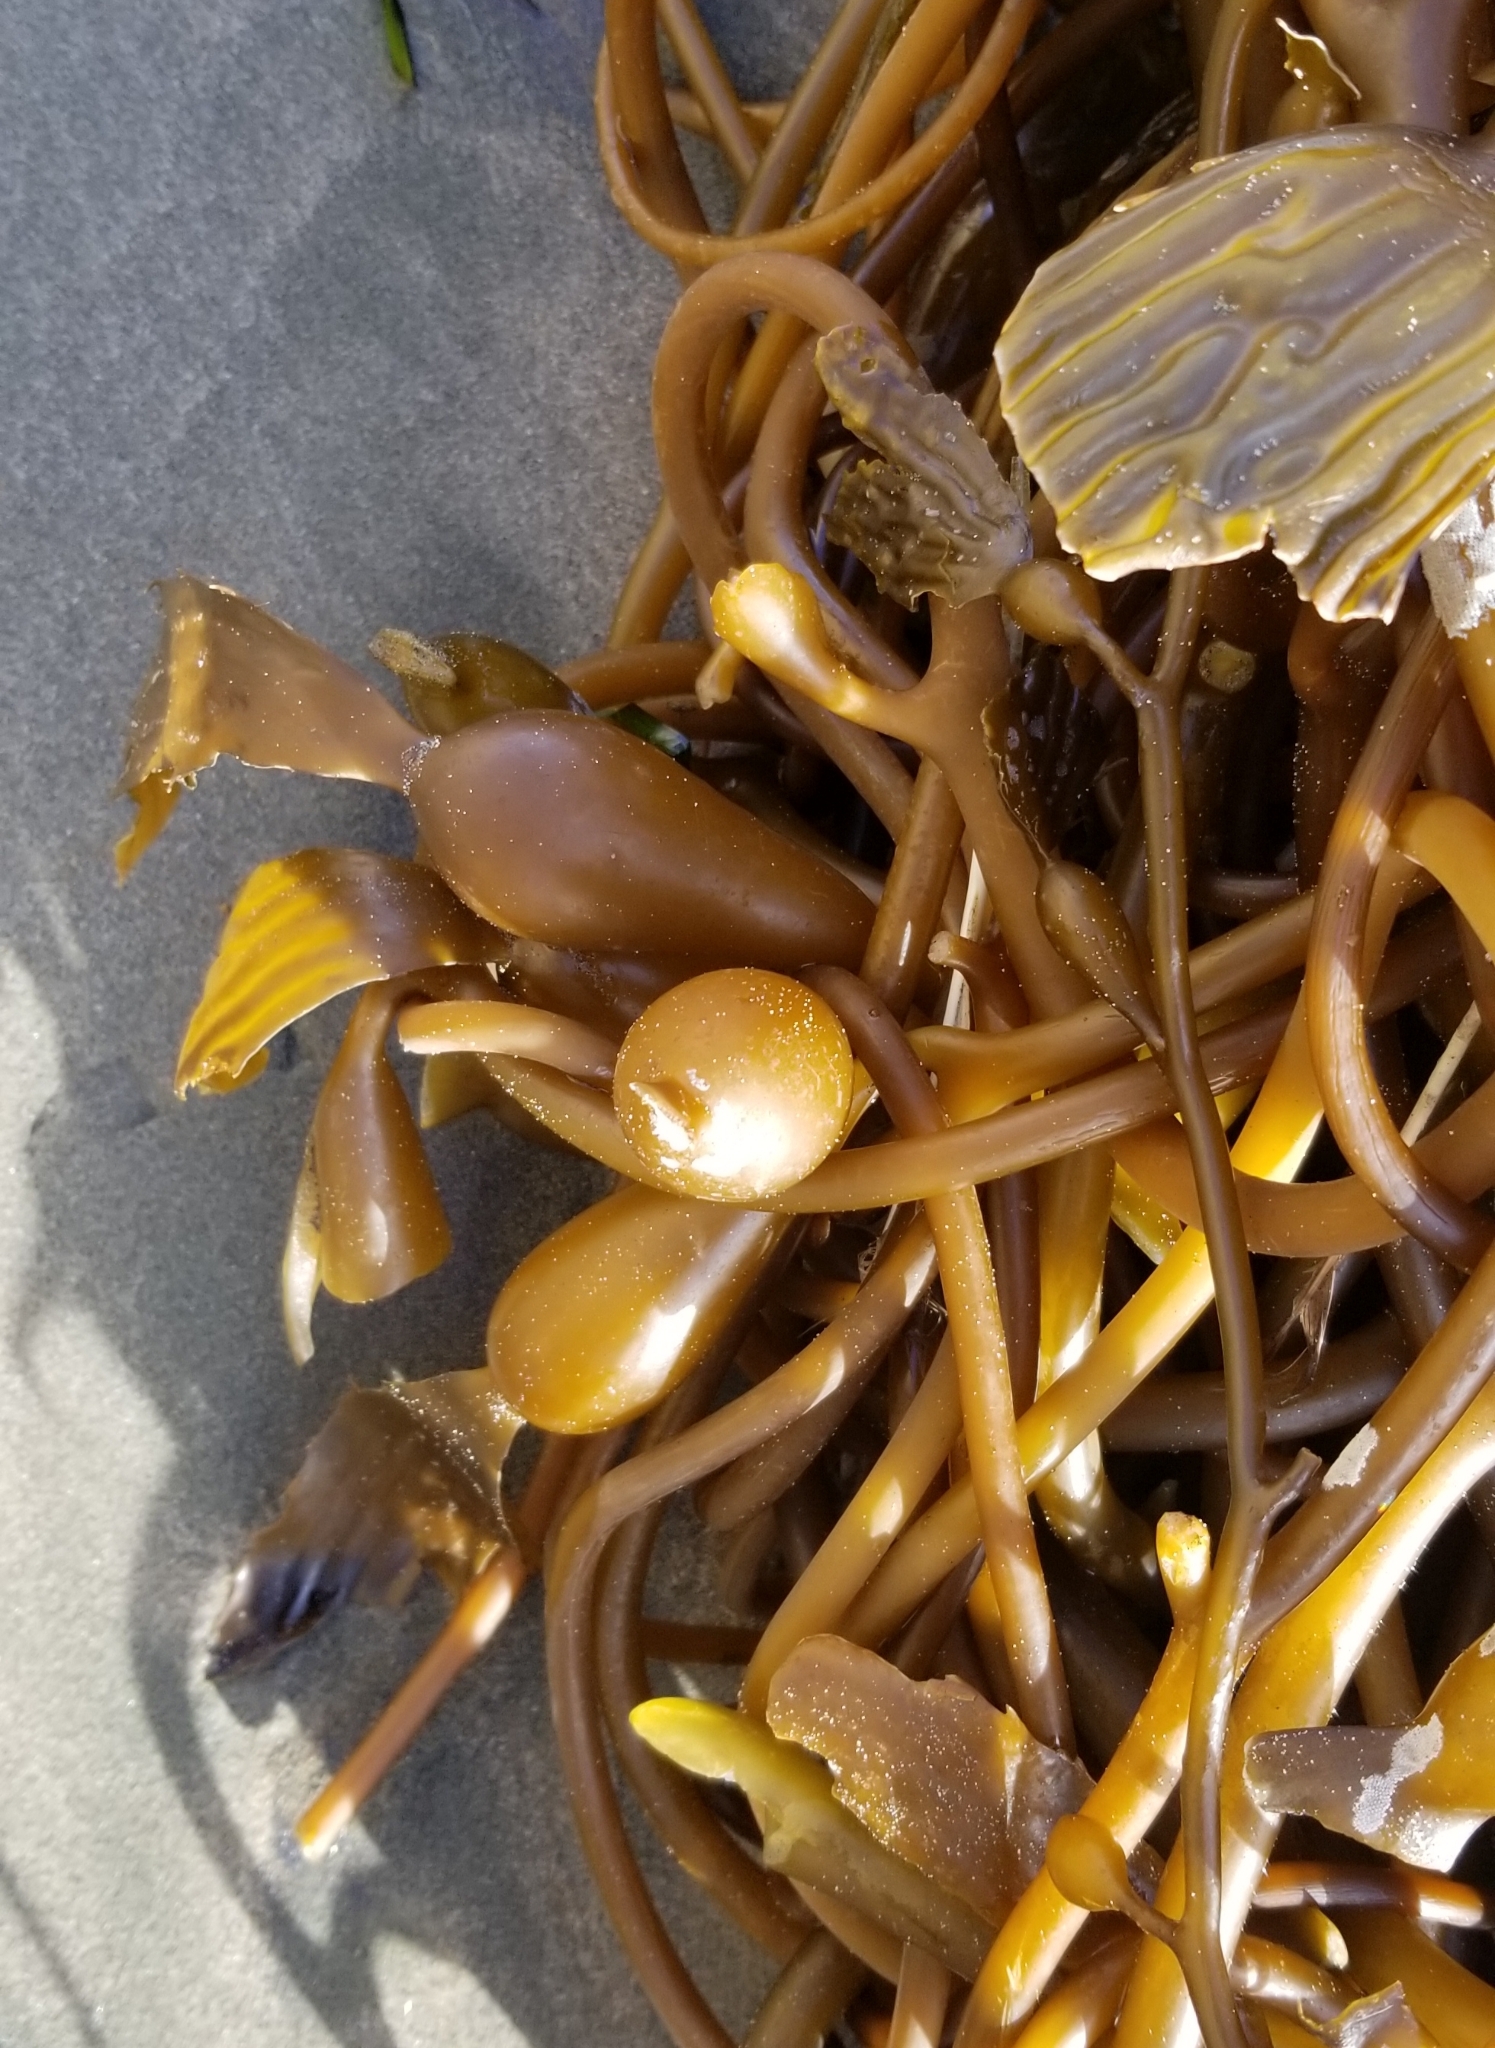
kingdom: Chromista
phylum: Ochrophyta
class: Phaeophyceae
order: Laminariales
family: Laminariaceae
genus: Macrocystis
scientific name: Macrocystis pyrifera
